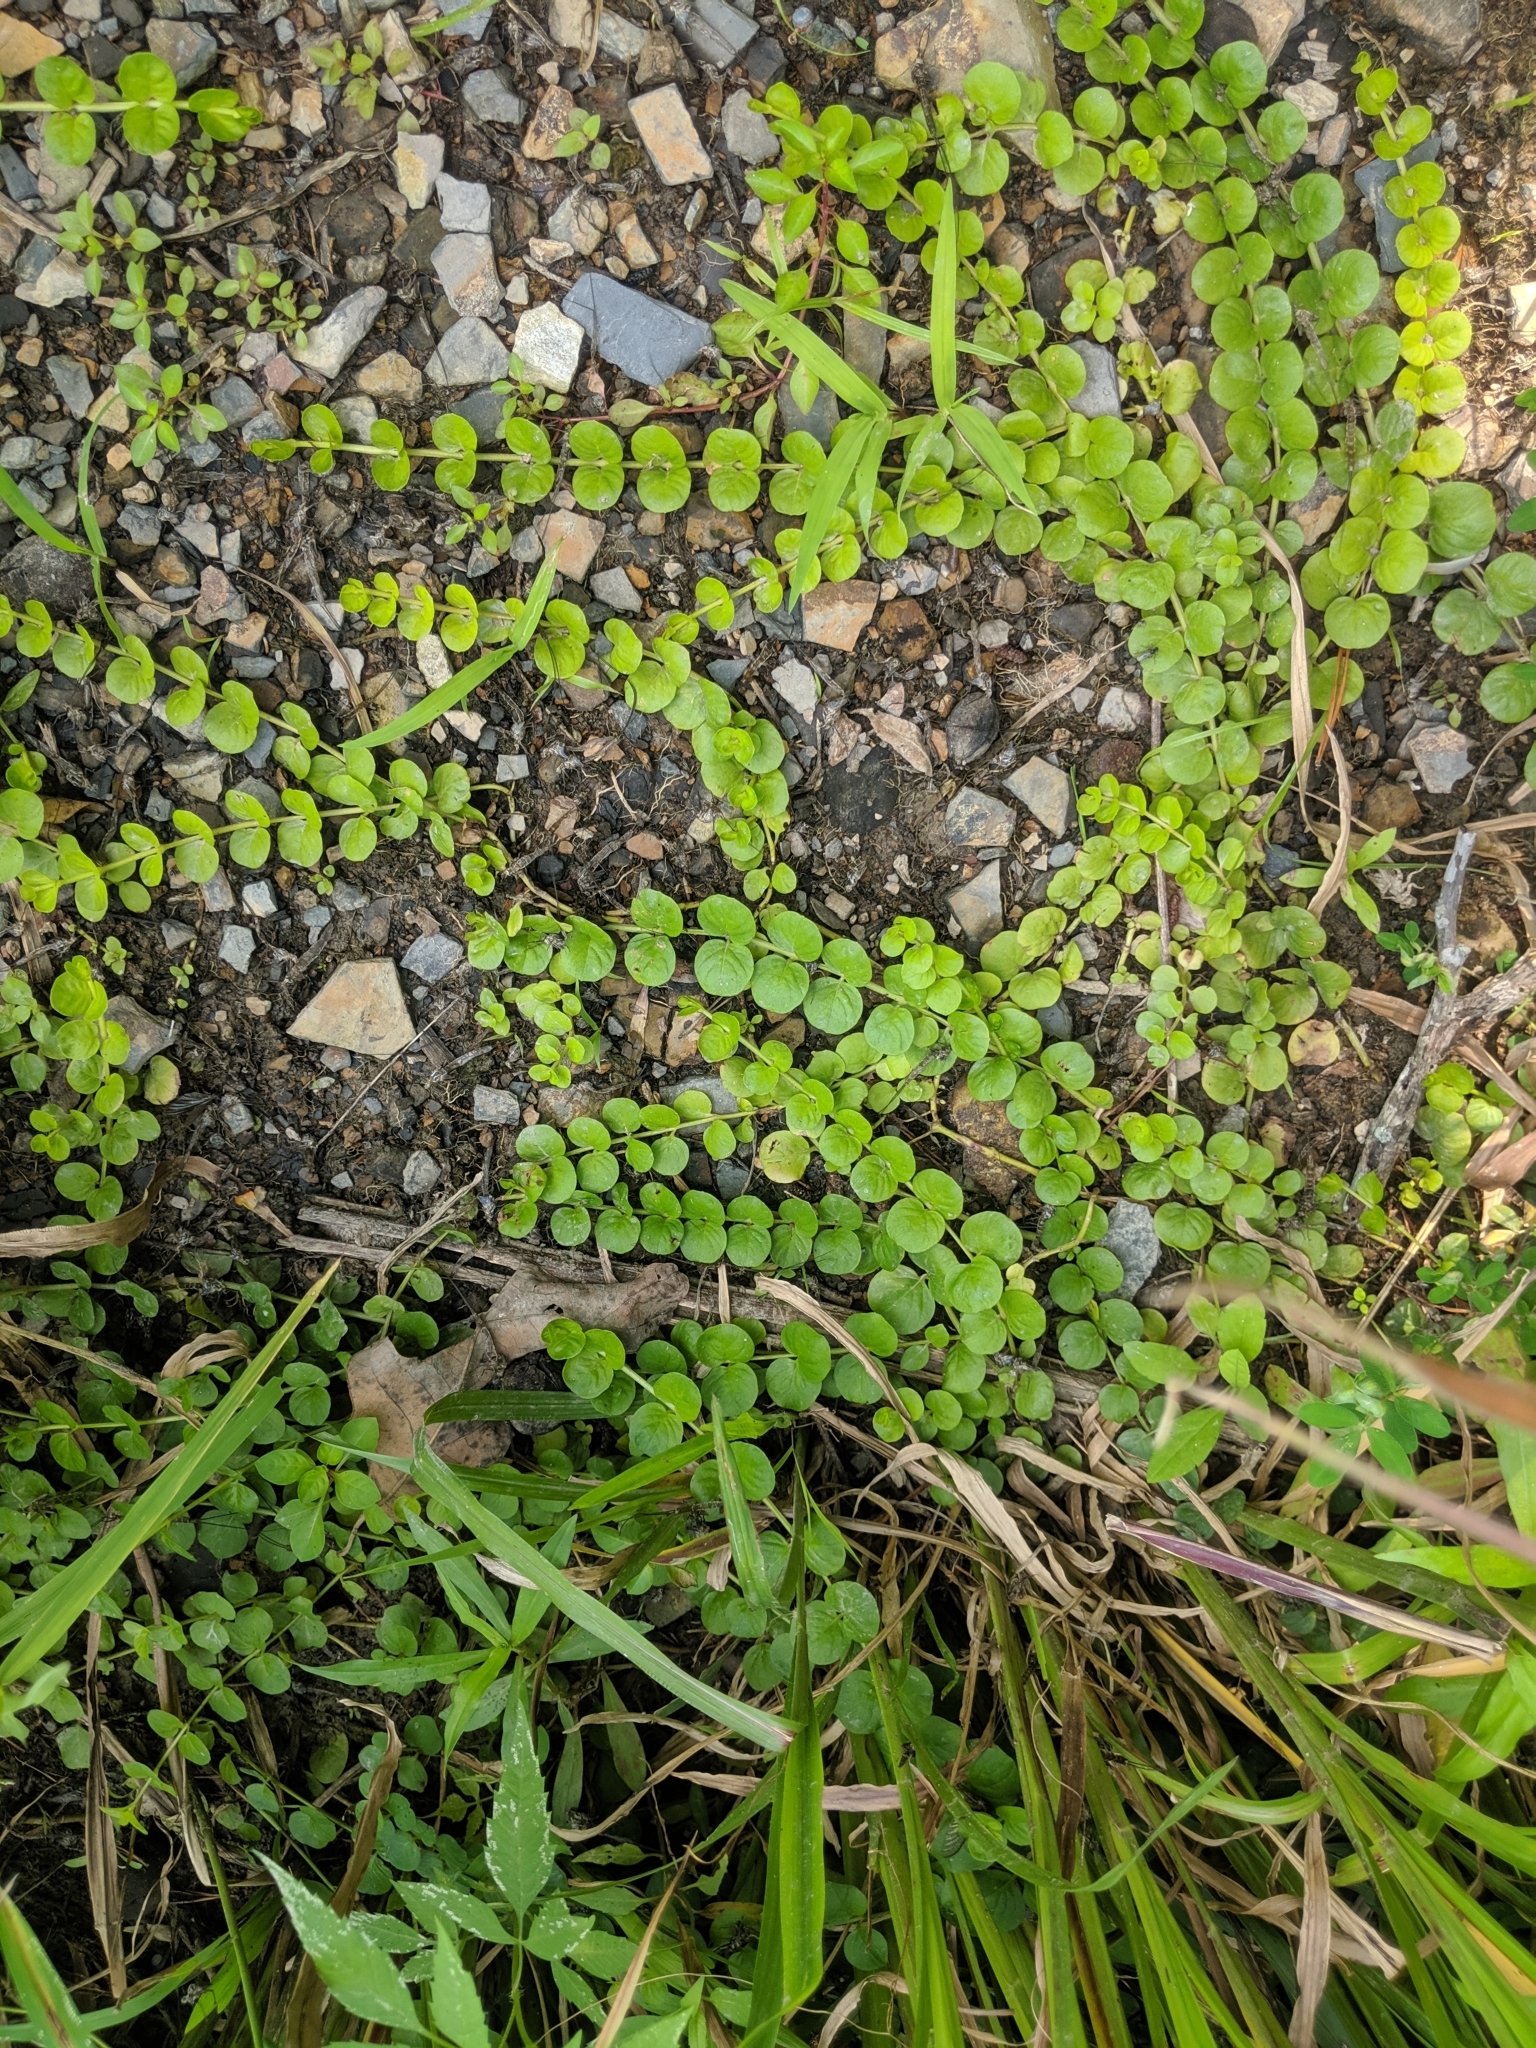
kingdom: Plantae
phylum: Tracheophyta
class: Magnoliopsida
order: Ericales
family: Primulaceae
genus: Lysimachia
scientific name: Lysimachia nummularia
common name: Moneywort
